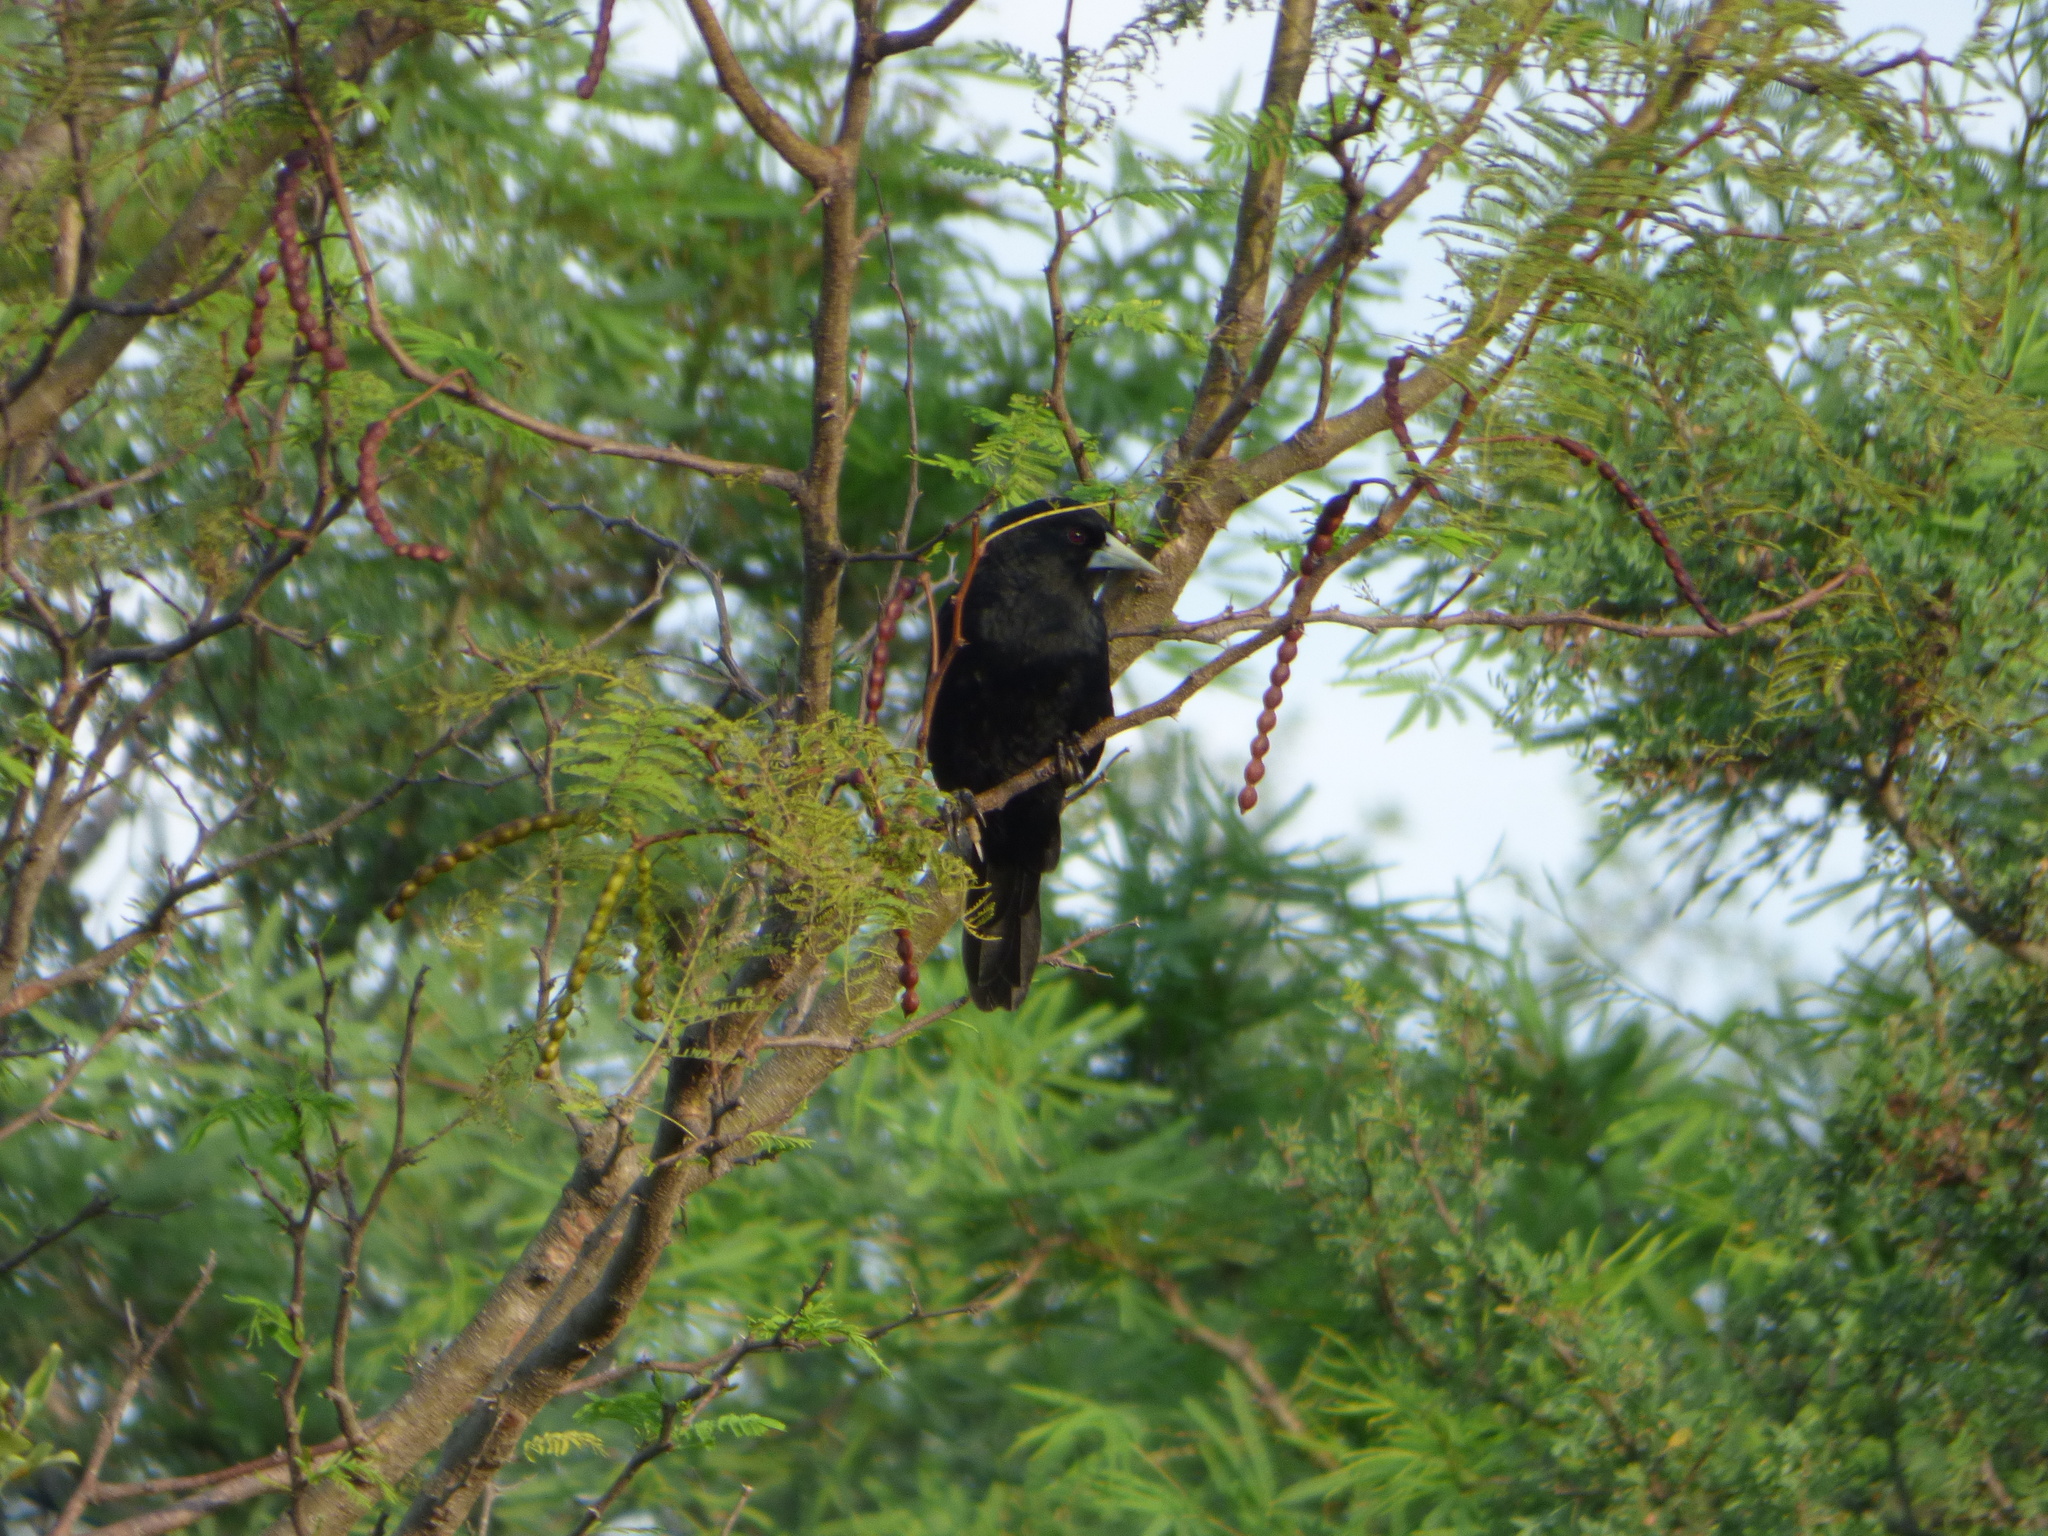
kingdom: Animalia
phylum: Chordata
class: Aves
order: Passeriformes
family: Icteridae
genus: Cacicus
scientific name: Cacicus solitarius
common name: Solitary cacique
